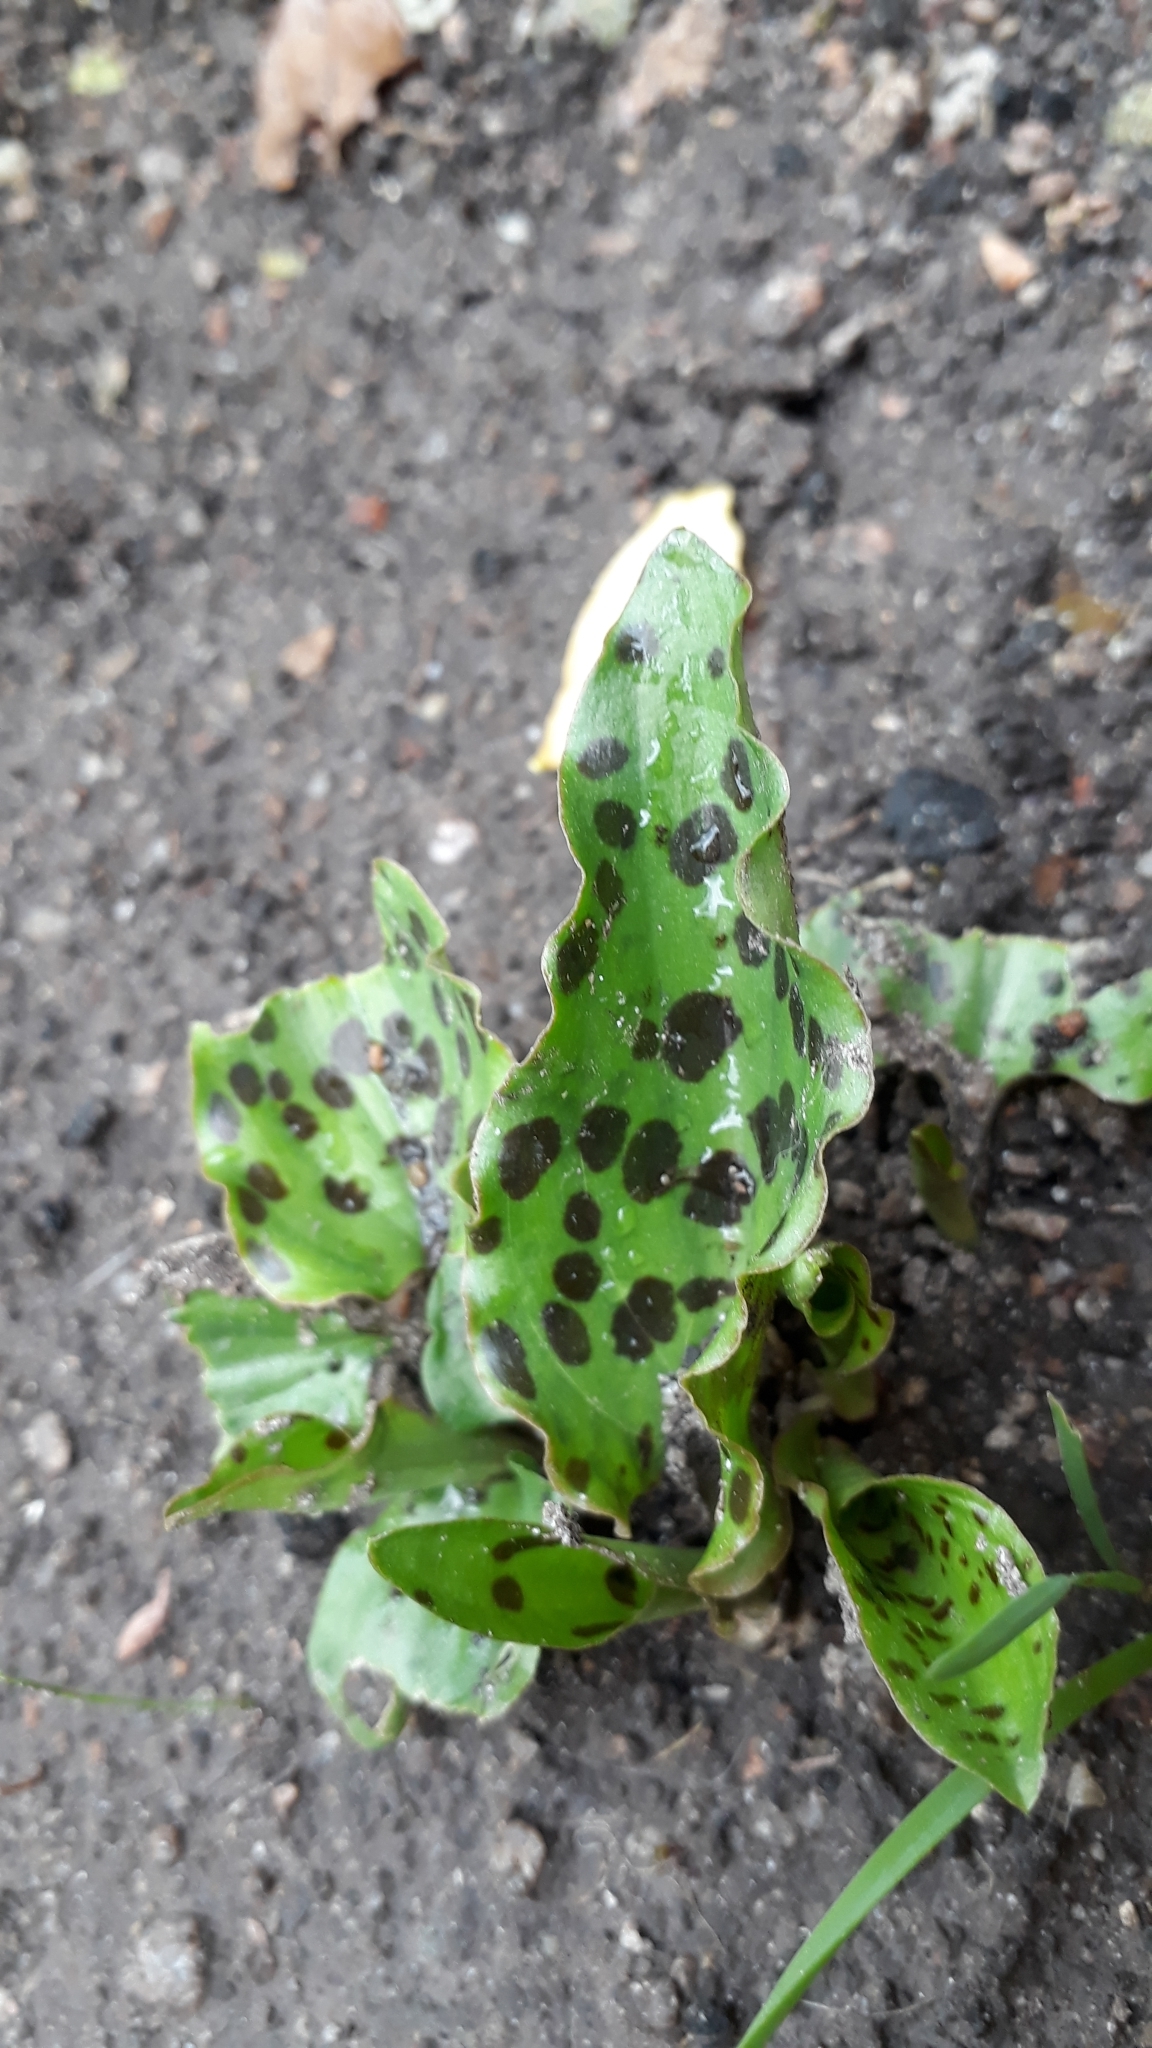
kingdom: Plantae
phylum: Tracheophyta
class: Liliopsida
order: Asparagales
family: Asparagaceae
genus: Drimiopsis
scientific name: Drimiopsis maculata
